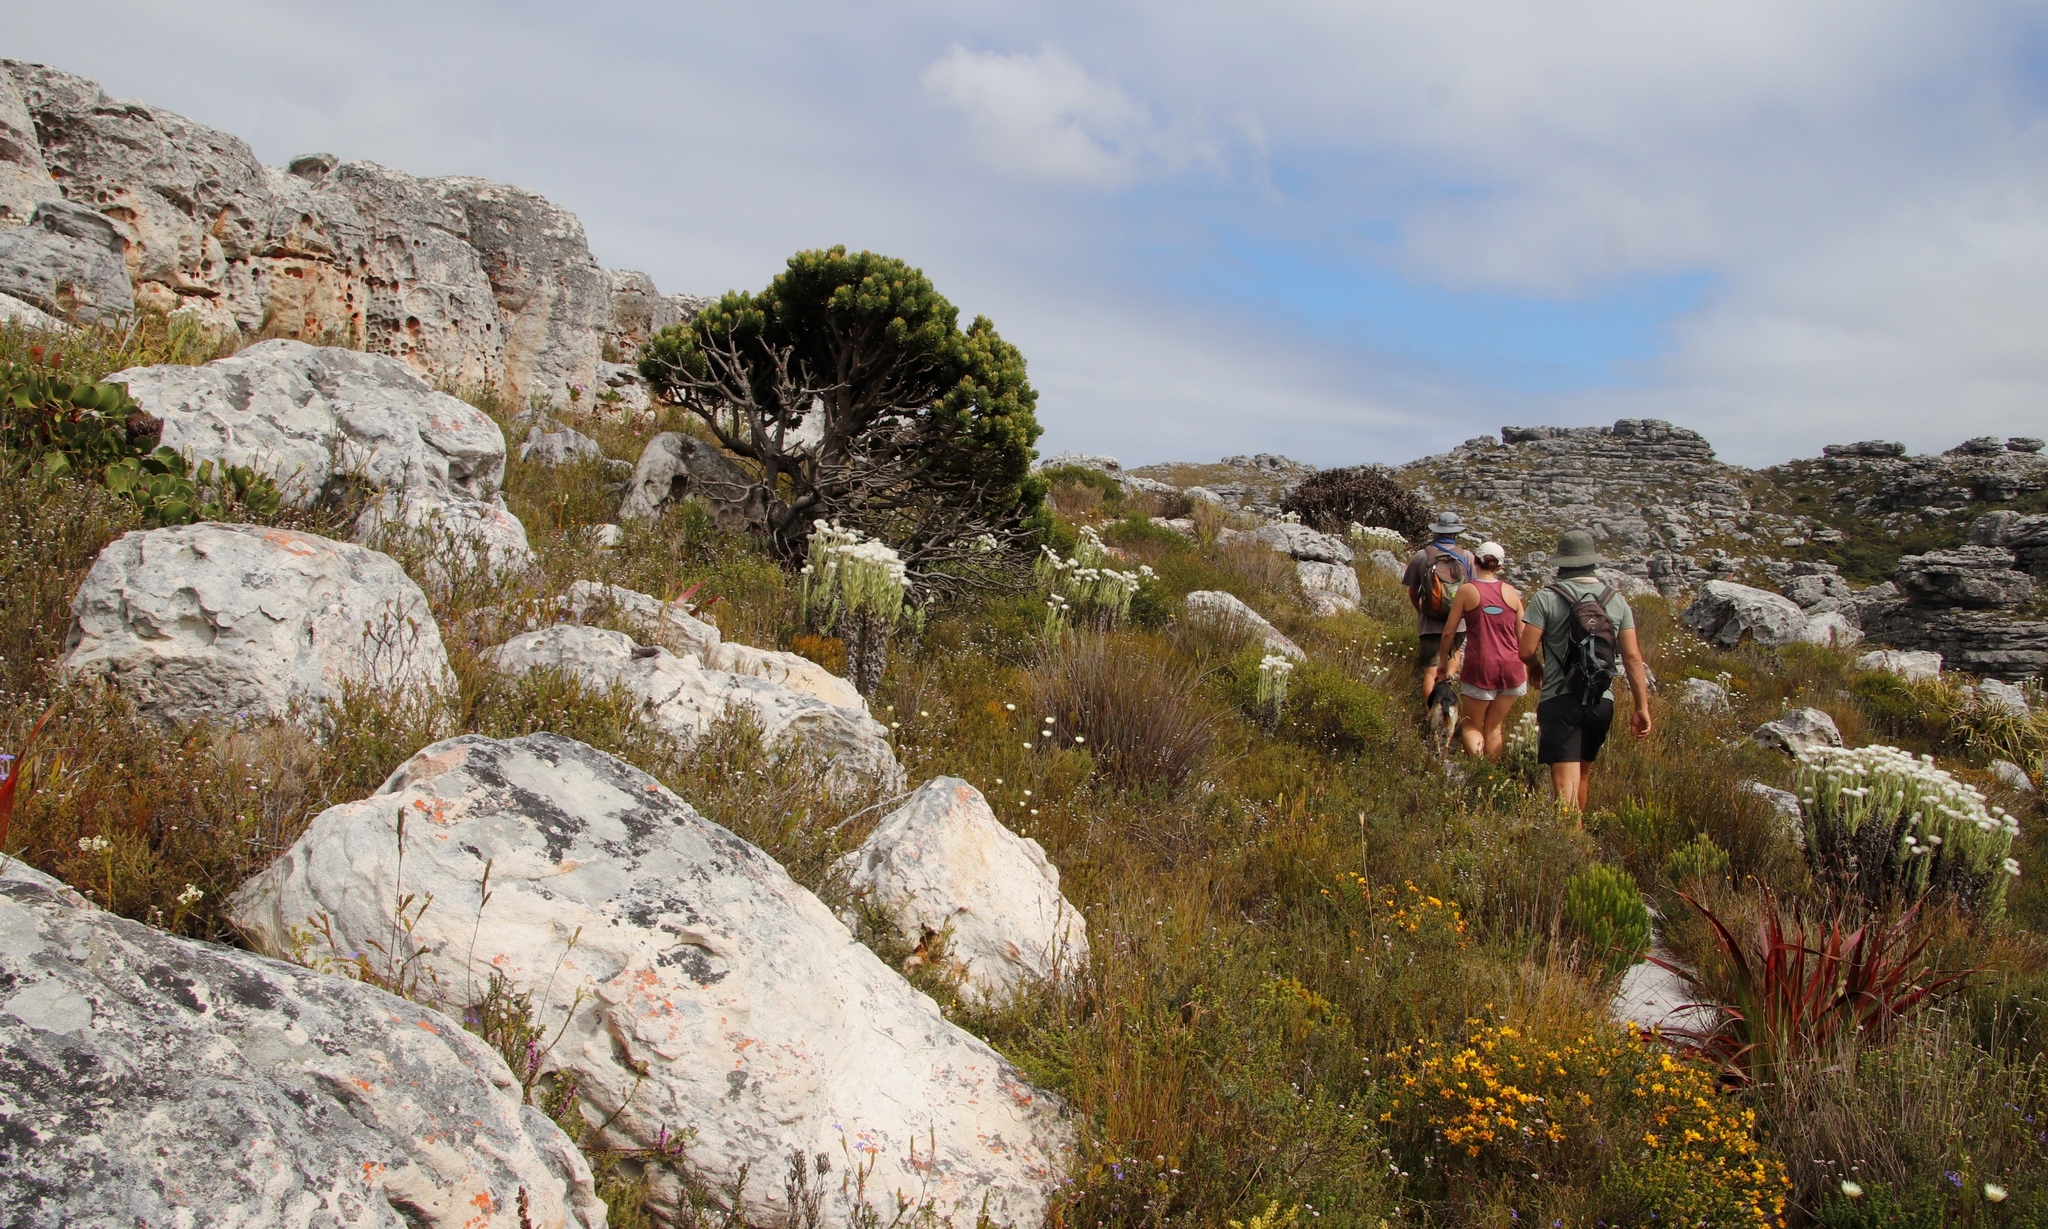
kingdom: Plantae
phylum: Tracheophyta
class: Magnoliopsida
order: Proteales
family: Proteaceae
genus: Mimetes
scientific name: Mimetes fimbriifolius
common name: Fringed bottlebrush
